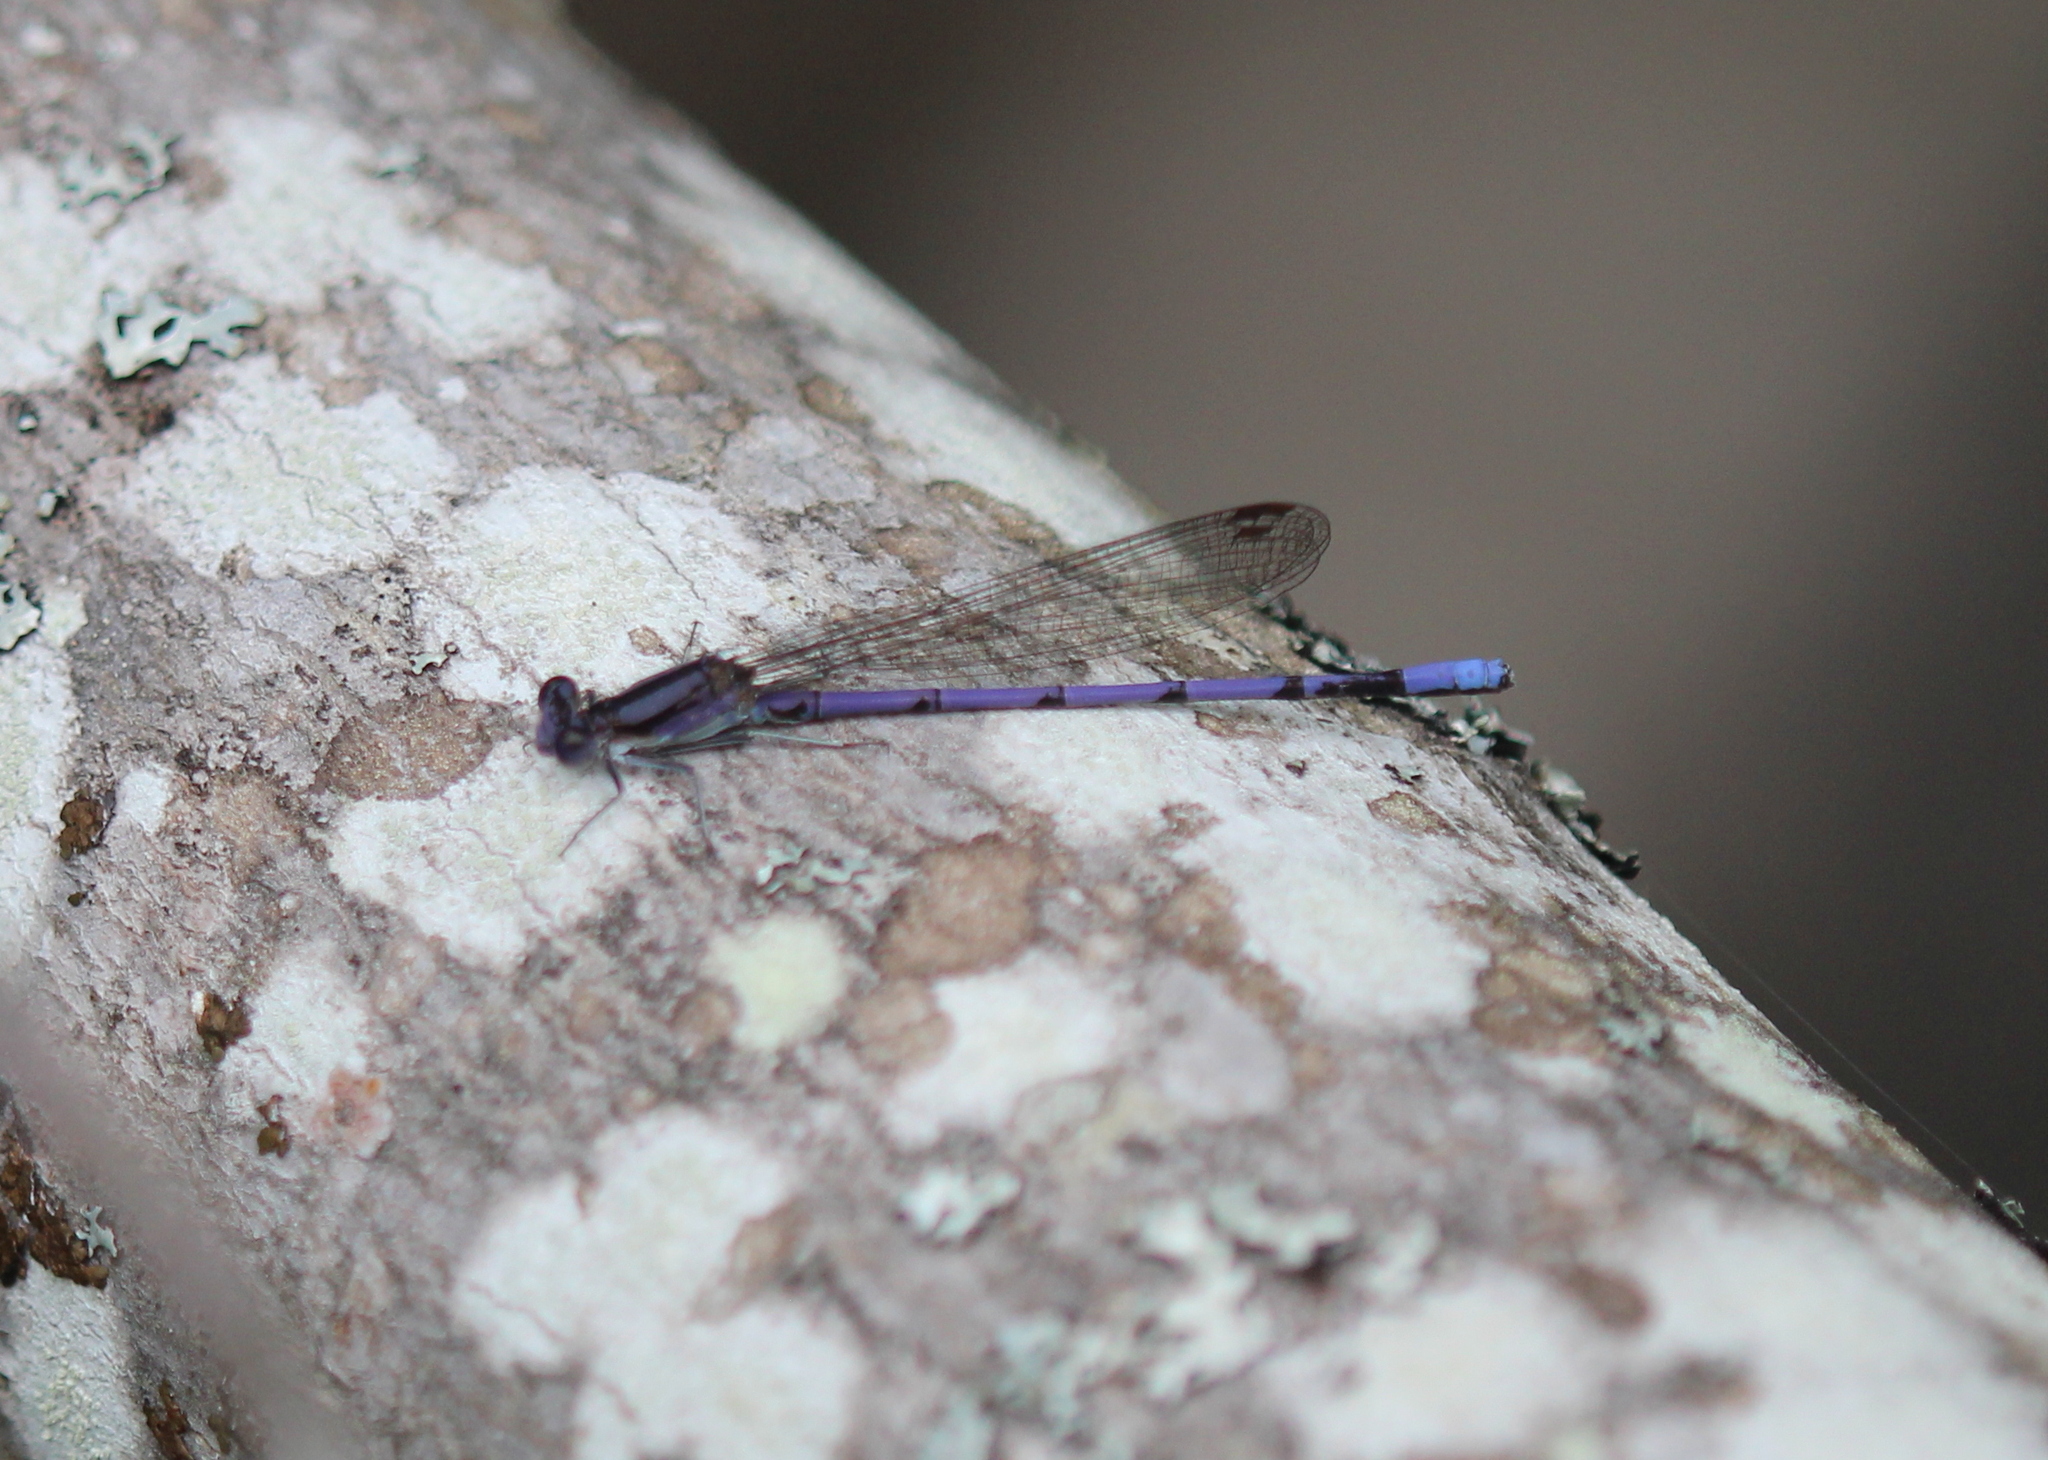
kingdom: Animalia
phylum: Arthropoda
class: Insecta
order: Odonata
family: Coenagrionidae
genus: Argia
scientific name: Argia fumipennis
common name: Variable dancer
